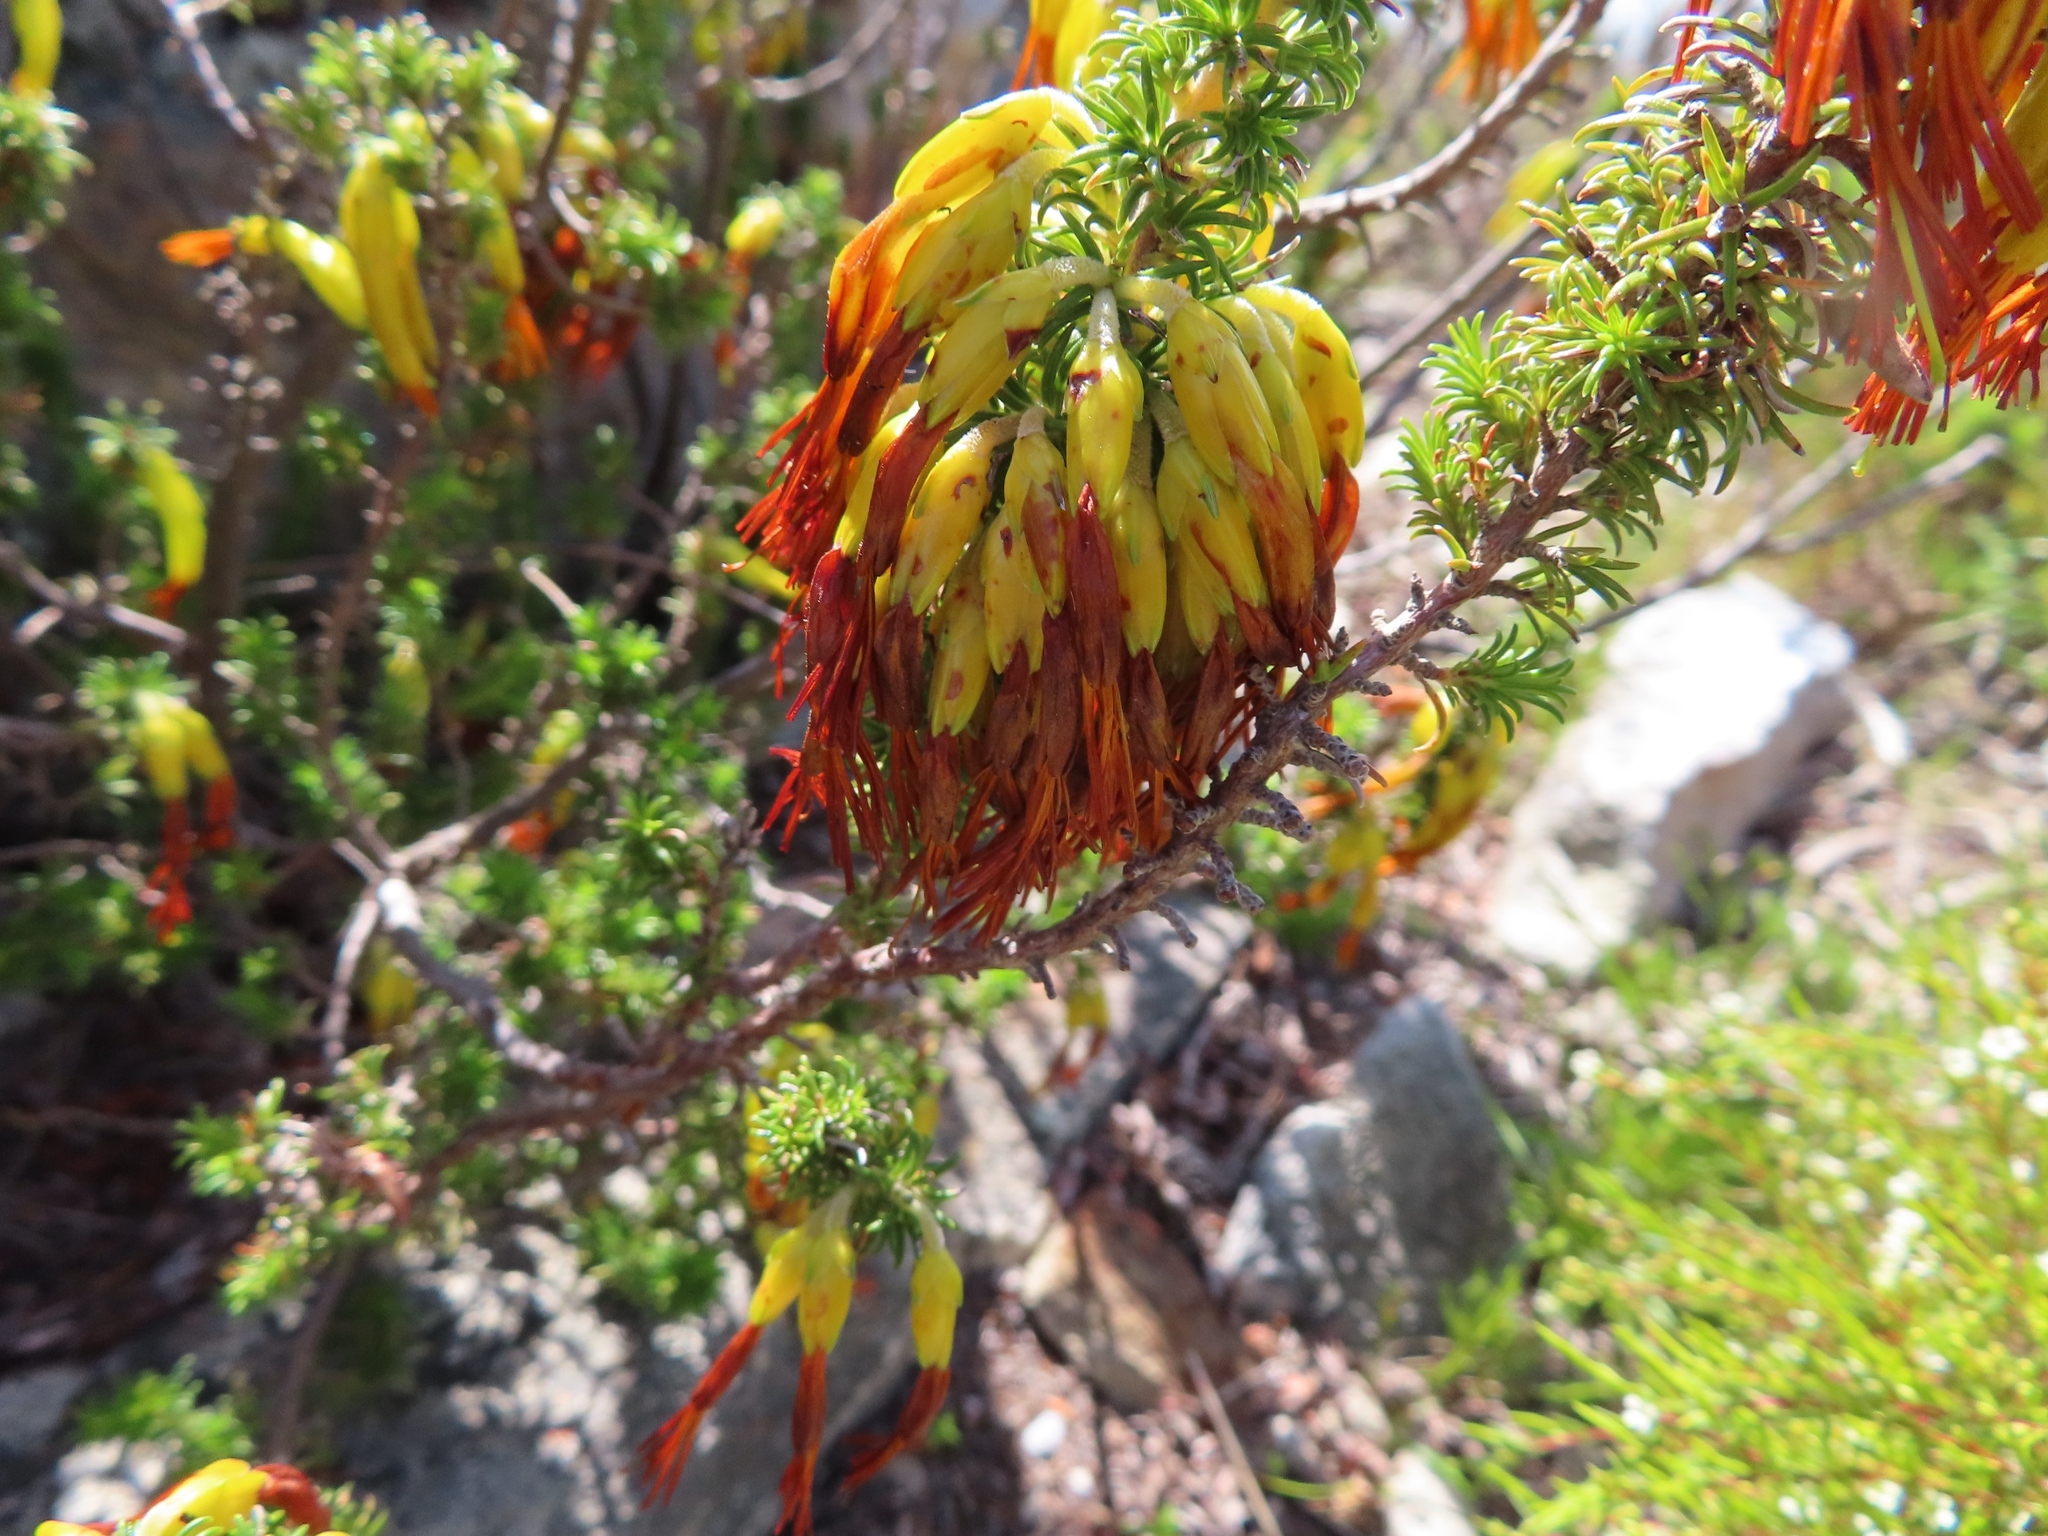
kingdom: Plantae
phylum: Tracheophyta
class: Magnoliopsida
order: Ericales
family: Ericaceae
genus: Erica
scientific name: Erica coccinea
